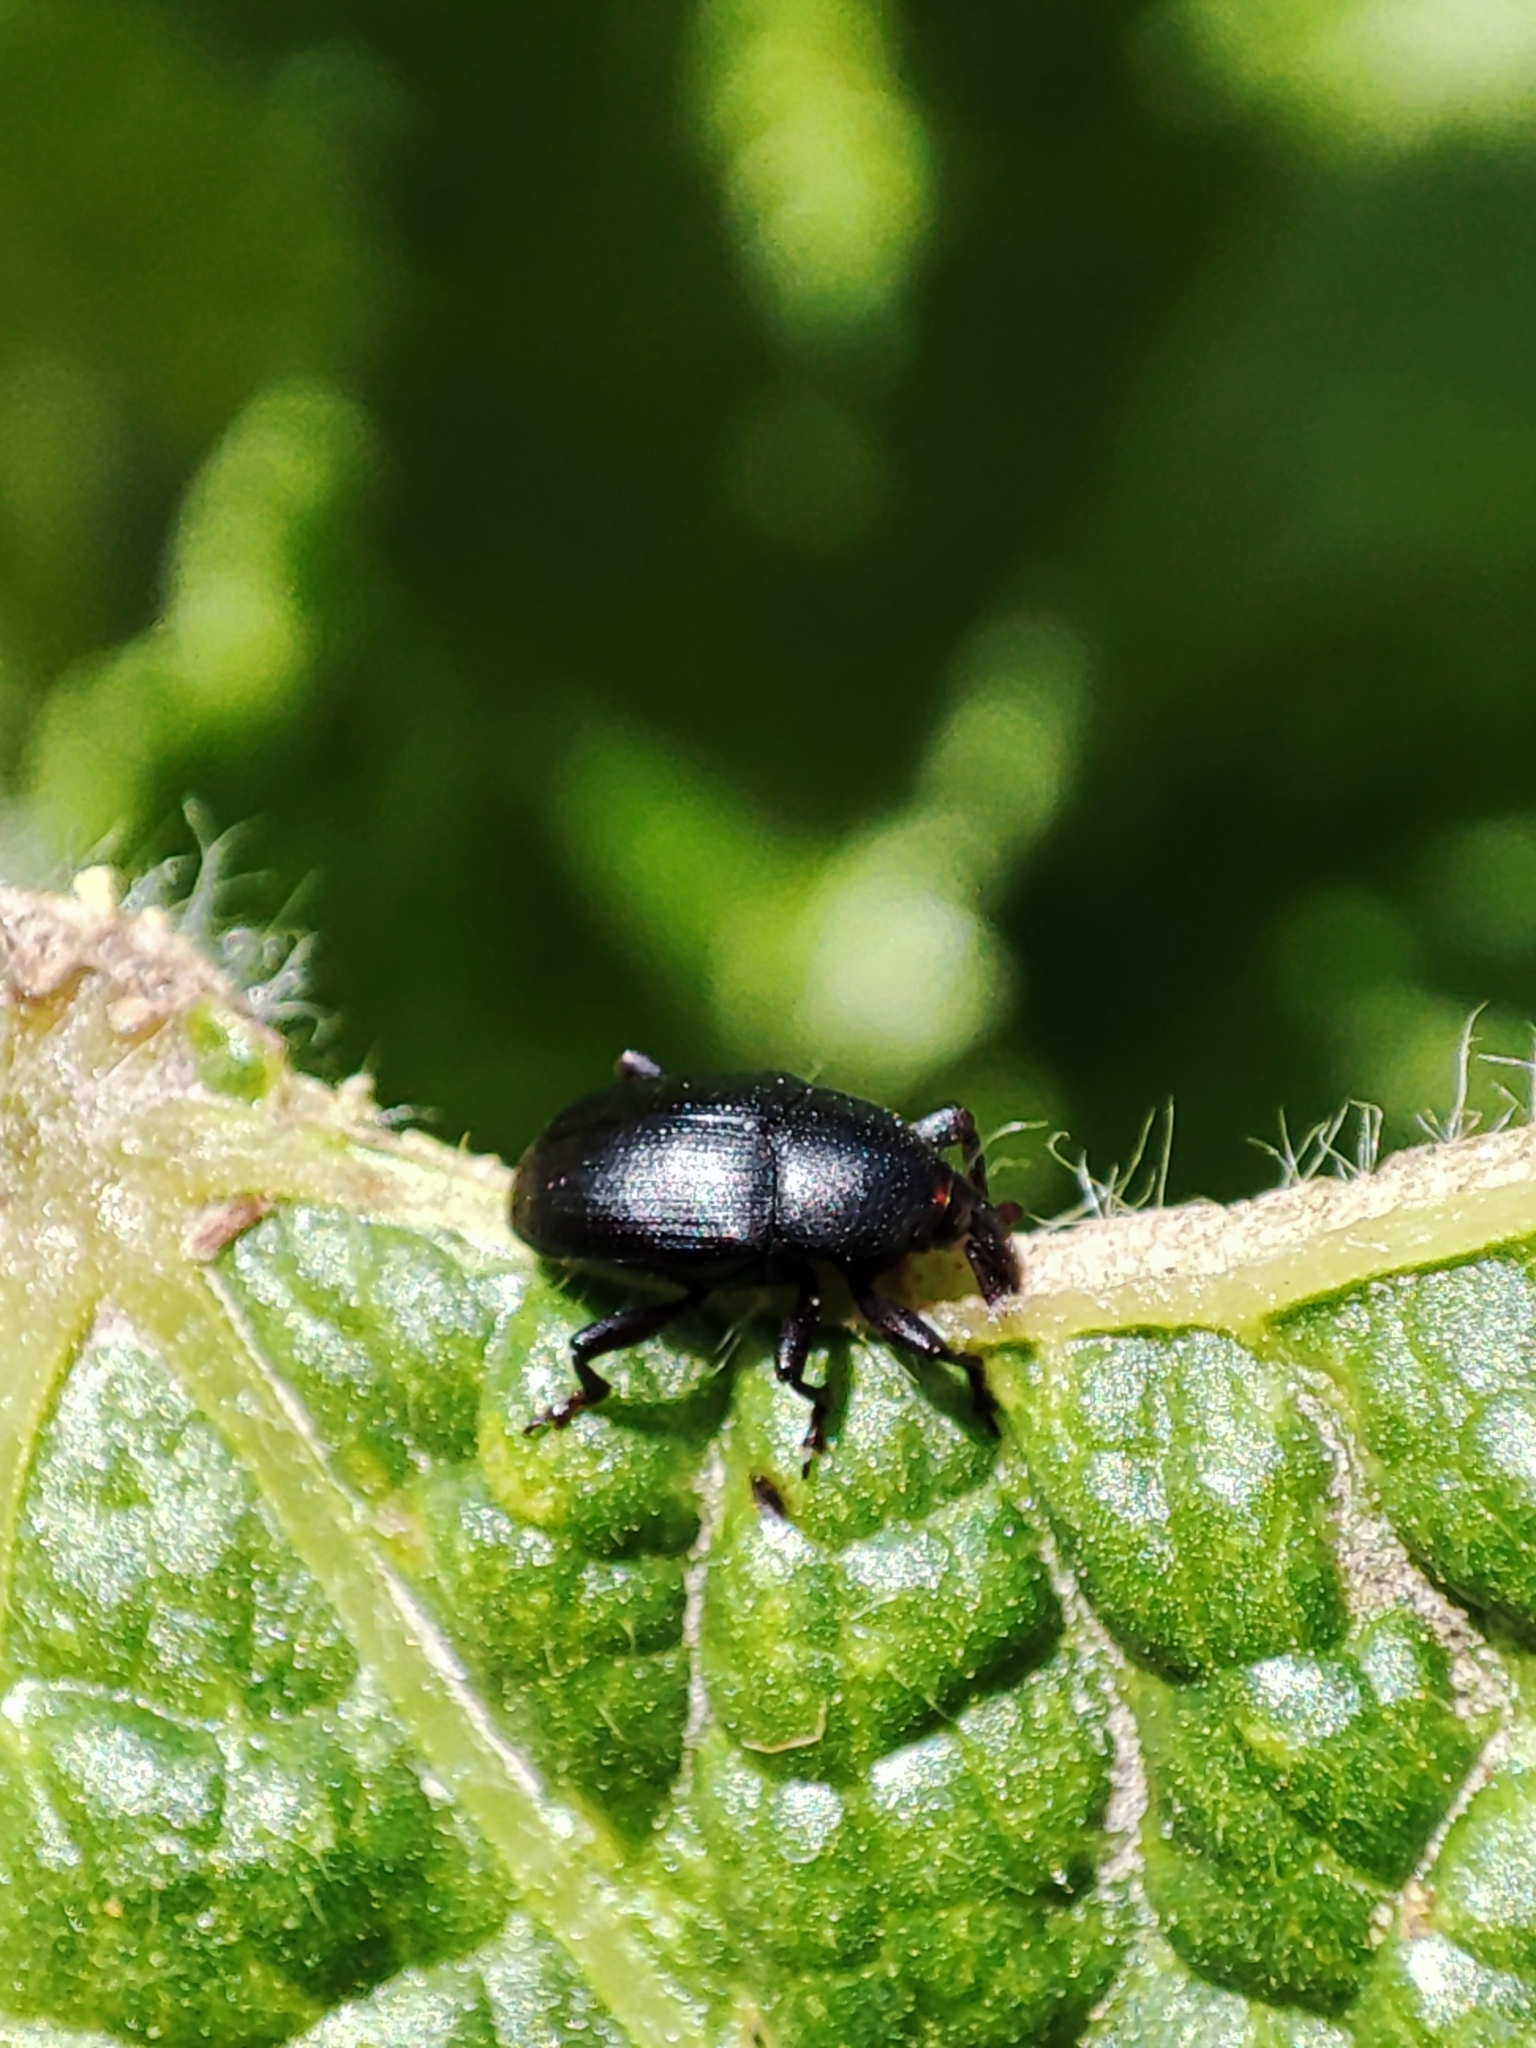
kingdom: Animalia
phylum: Arthropoda
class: Insecta
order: Coleoptera
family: Curculionidae
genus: Malvaevora
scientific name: Malvaevora timida
